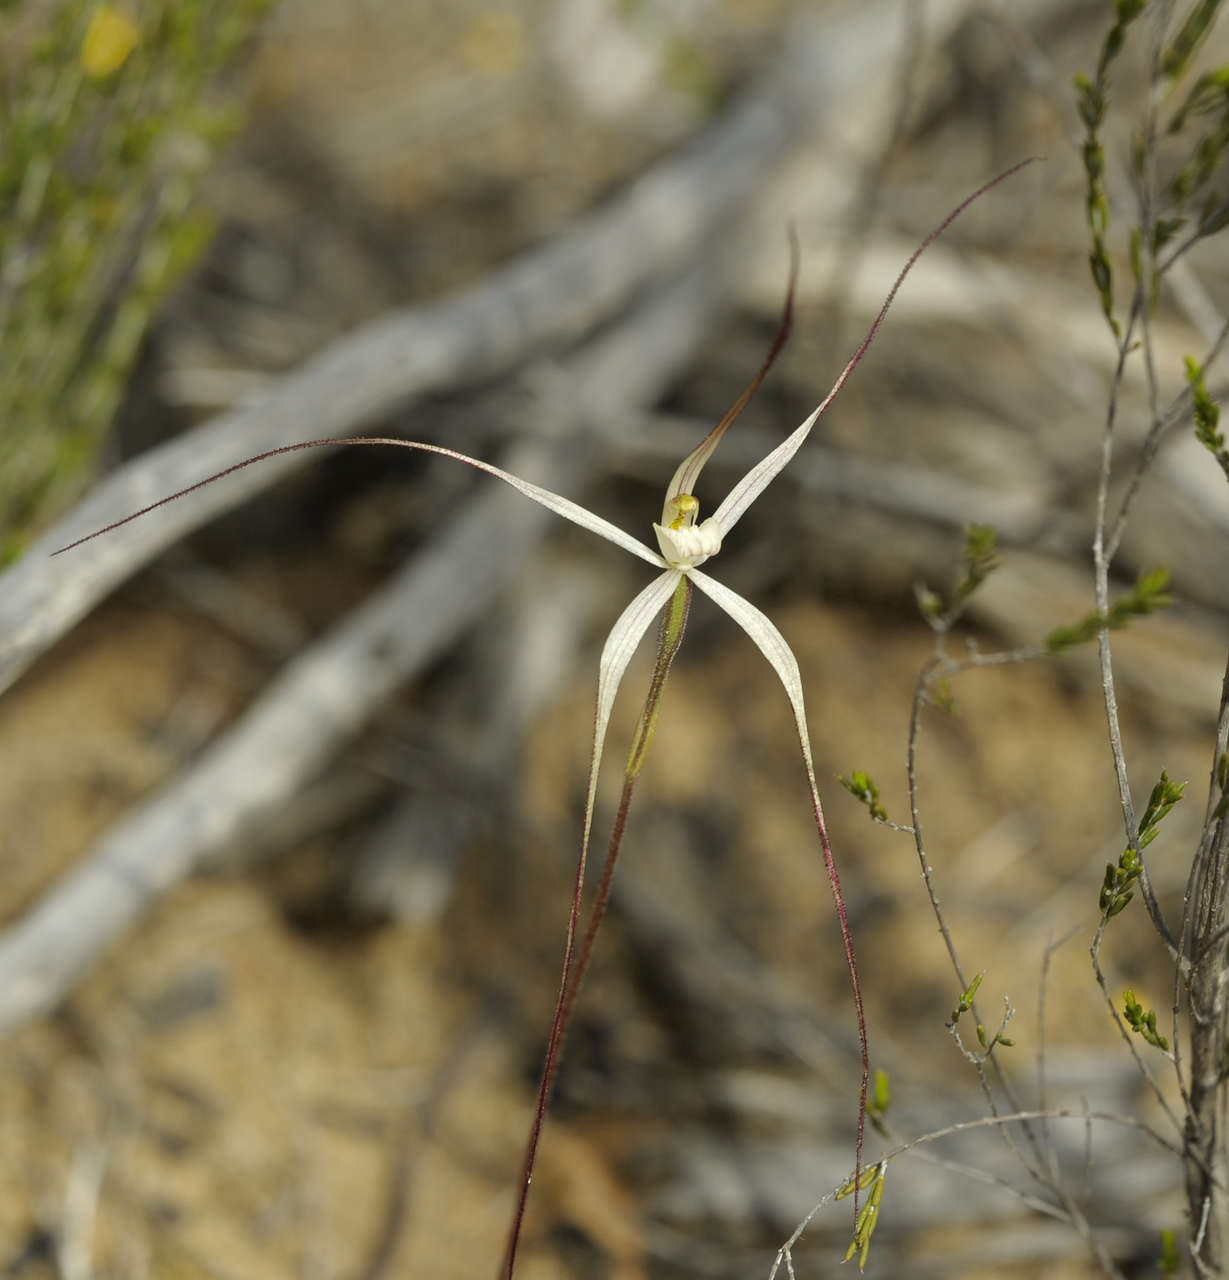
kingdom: Plantae
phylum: Tracheophyta
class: Liliopsida
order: Asparagales
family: Orchidaceae
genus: Caladenia
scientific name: Caladenia capillata
